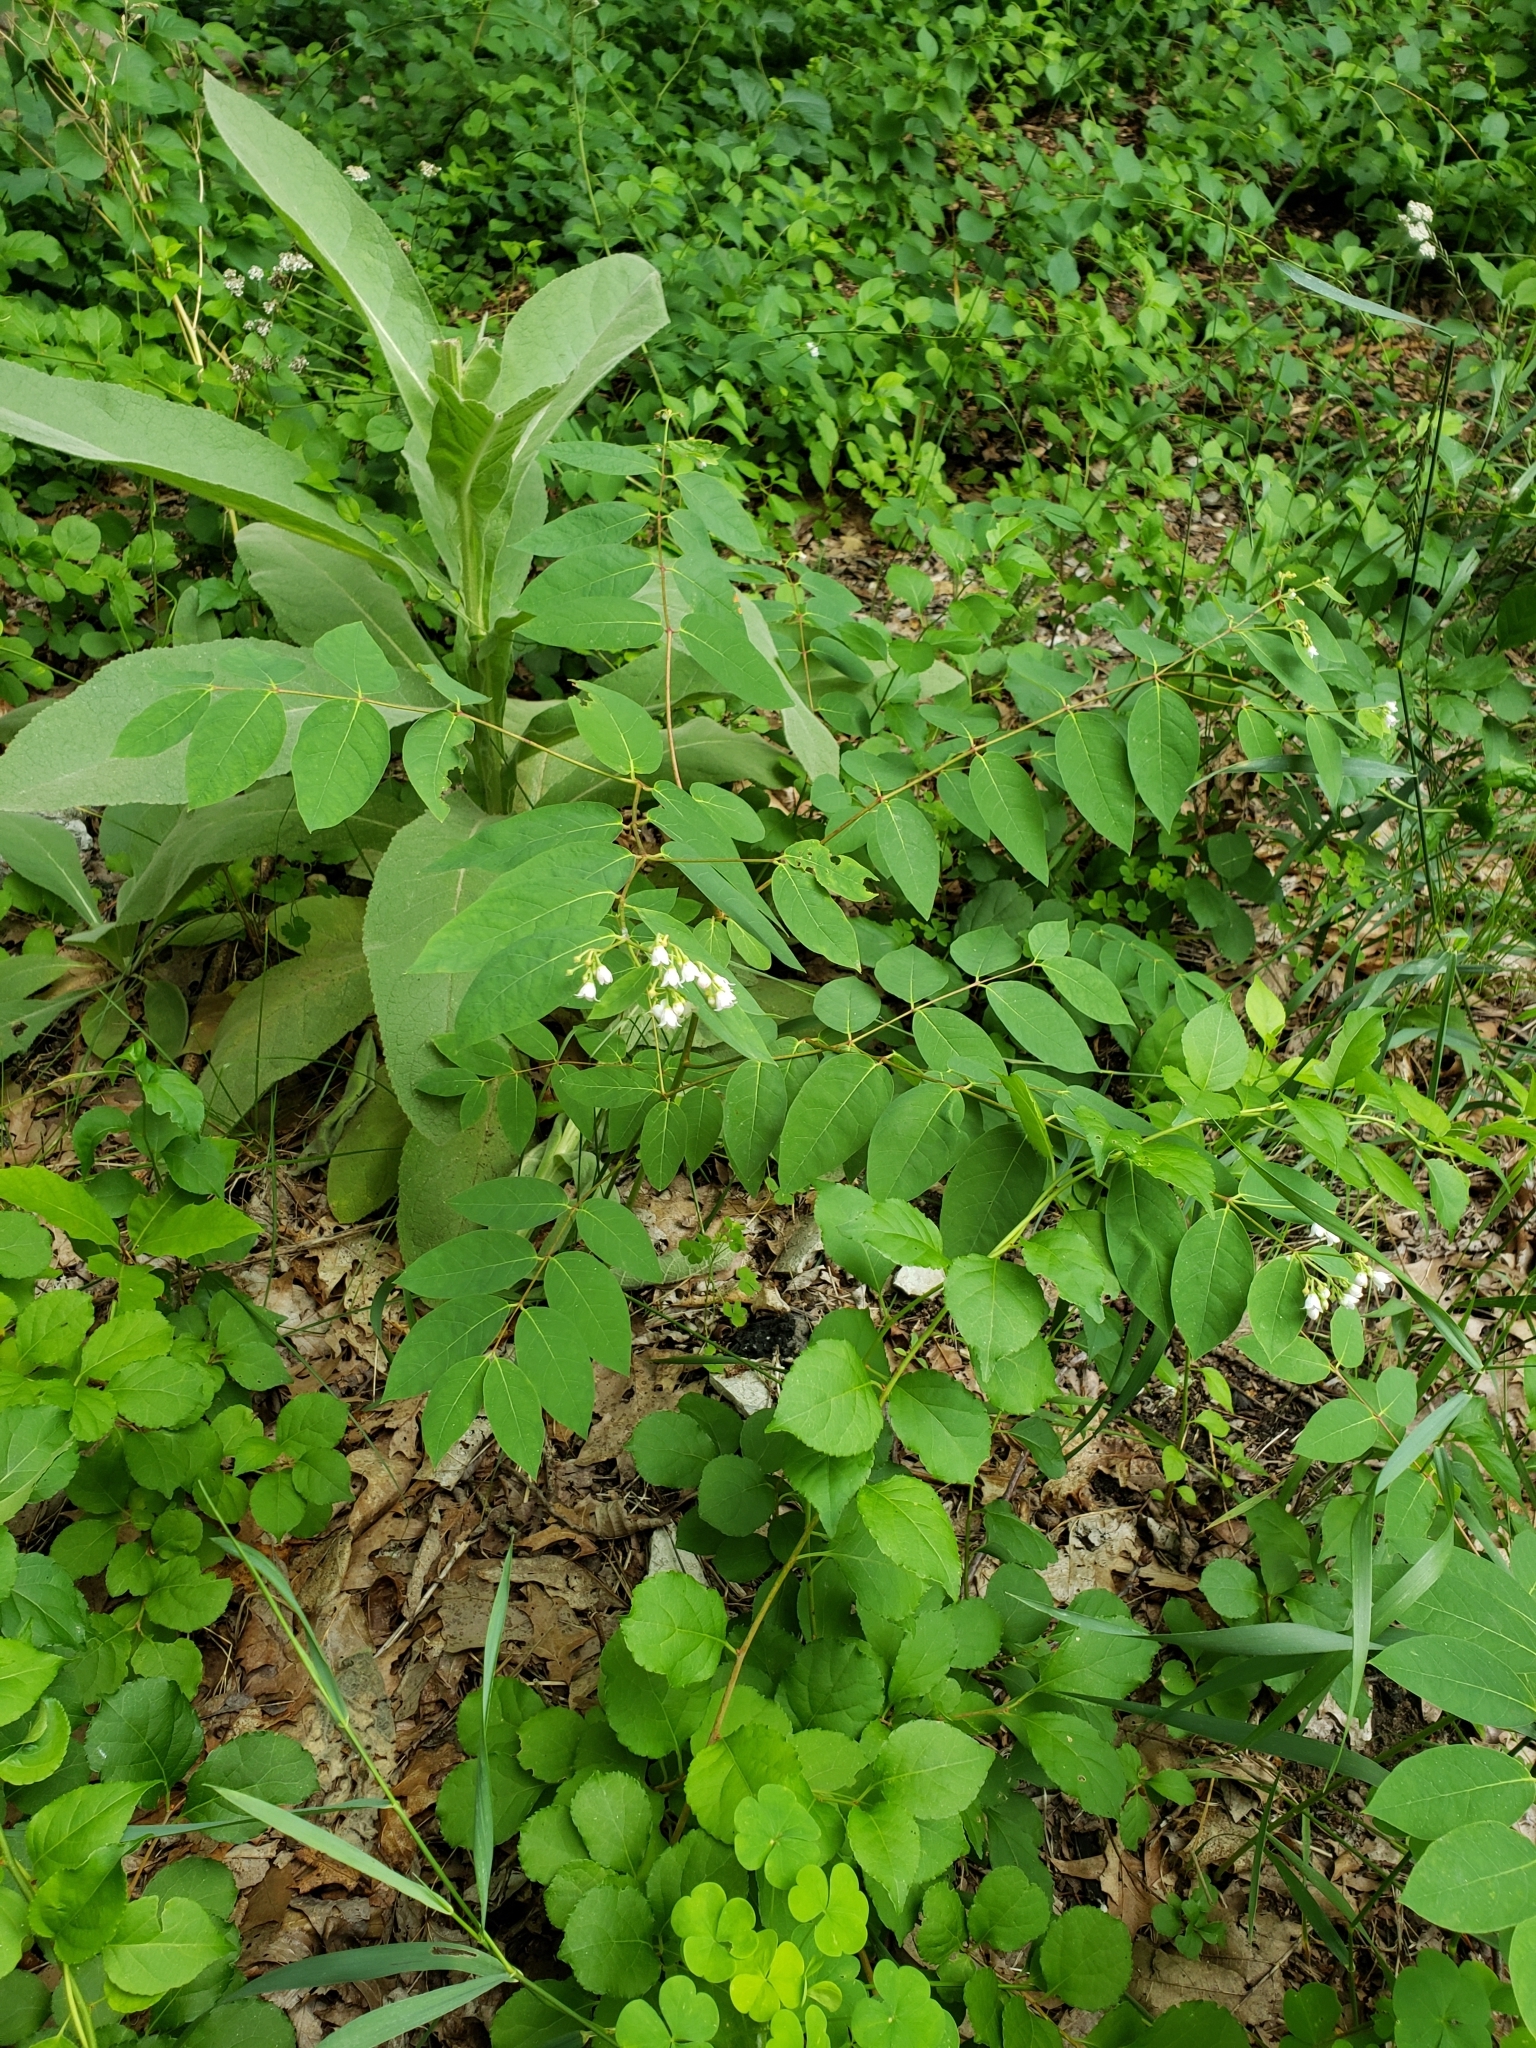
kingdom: Plantae
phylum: Tracheophyta
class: Magnoliopsida
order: Gentianales
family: Apocynaceae
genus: Apocynum
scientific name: Apocynum androsaemifolium
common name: Spreading dogbane
